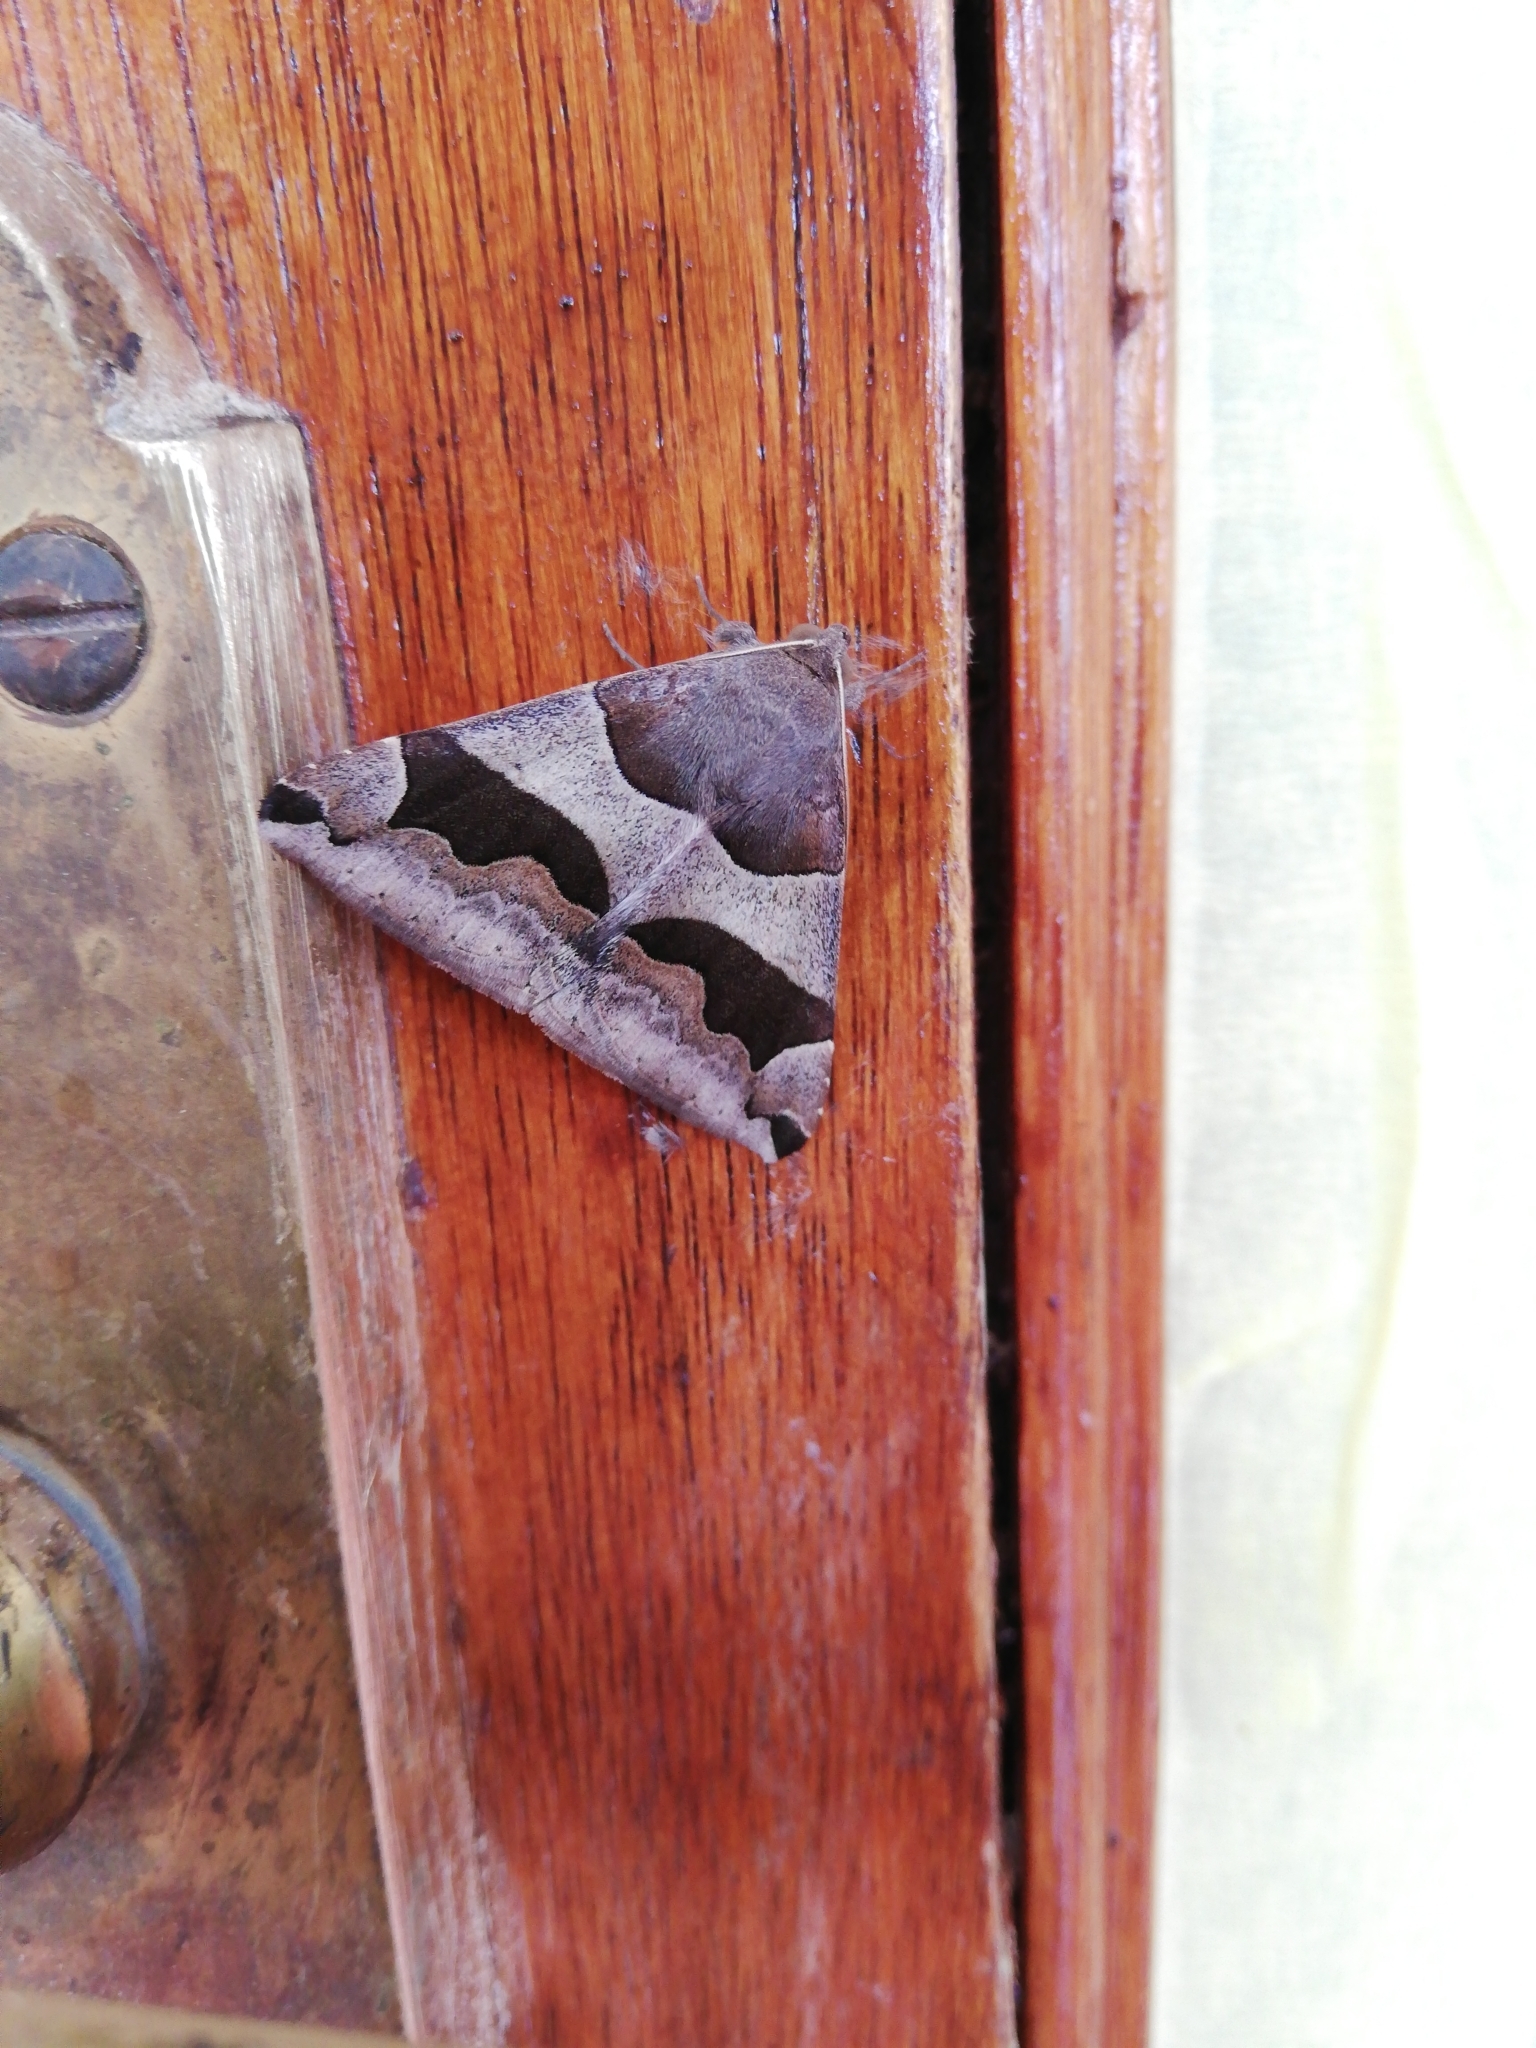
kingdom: Animalia
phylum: Arthropoda
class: Insecta
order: Lepidoptera
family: Erebidae
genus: Dysgonia
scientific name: Dysgonia torrida
